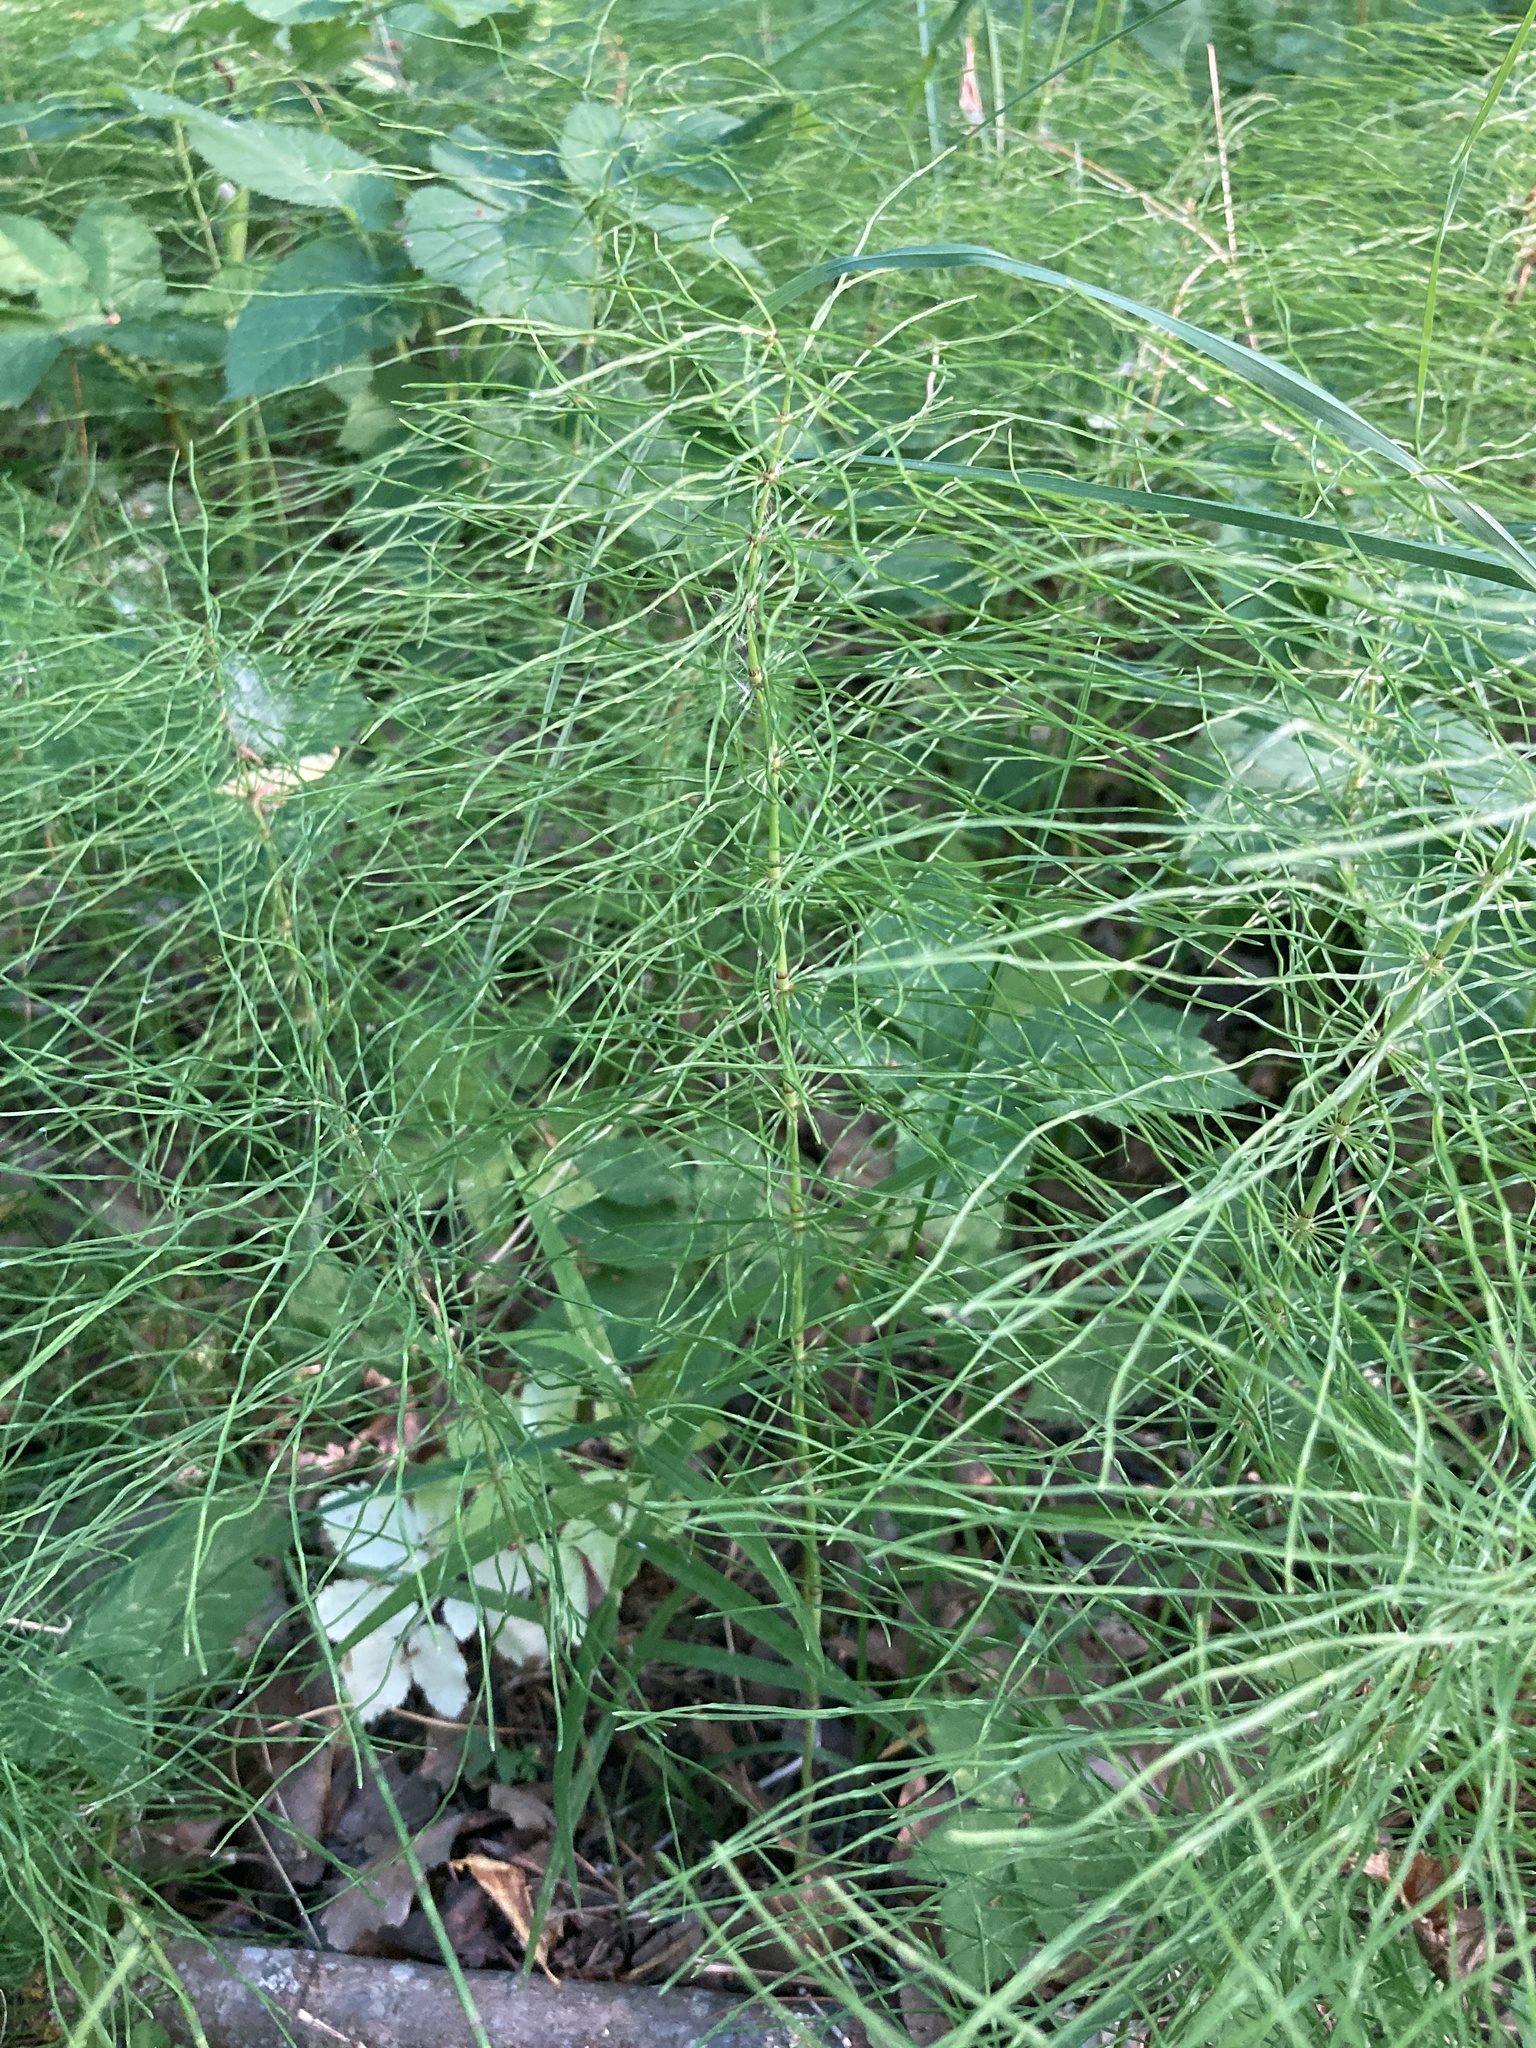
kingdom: Plantae
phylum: Tracheophyta
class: Polypodiopsida
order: Equisetales
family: Equisetaceae
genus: Equisetum
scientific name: Equisetum pratense
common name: Meadow horsetail
